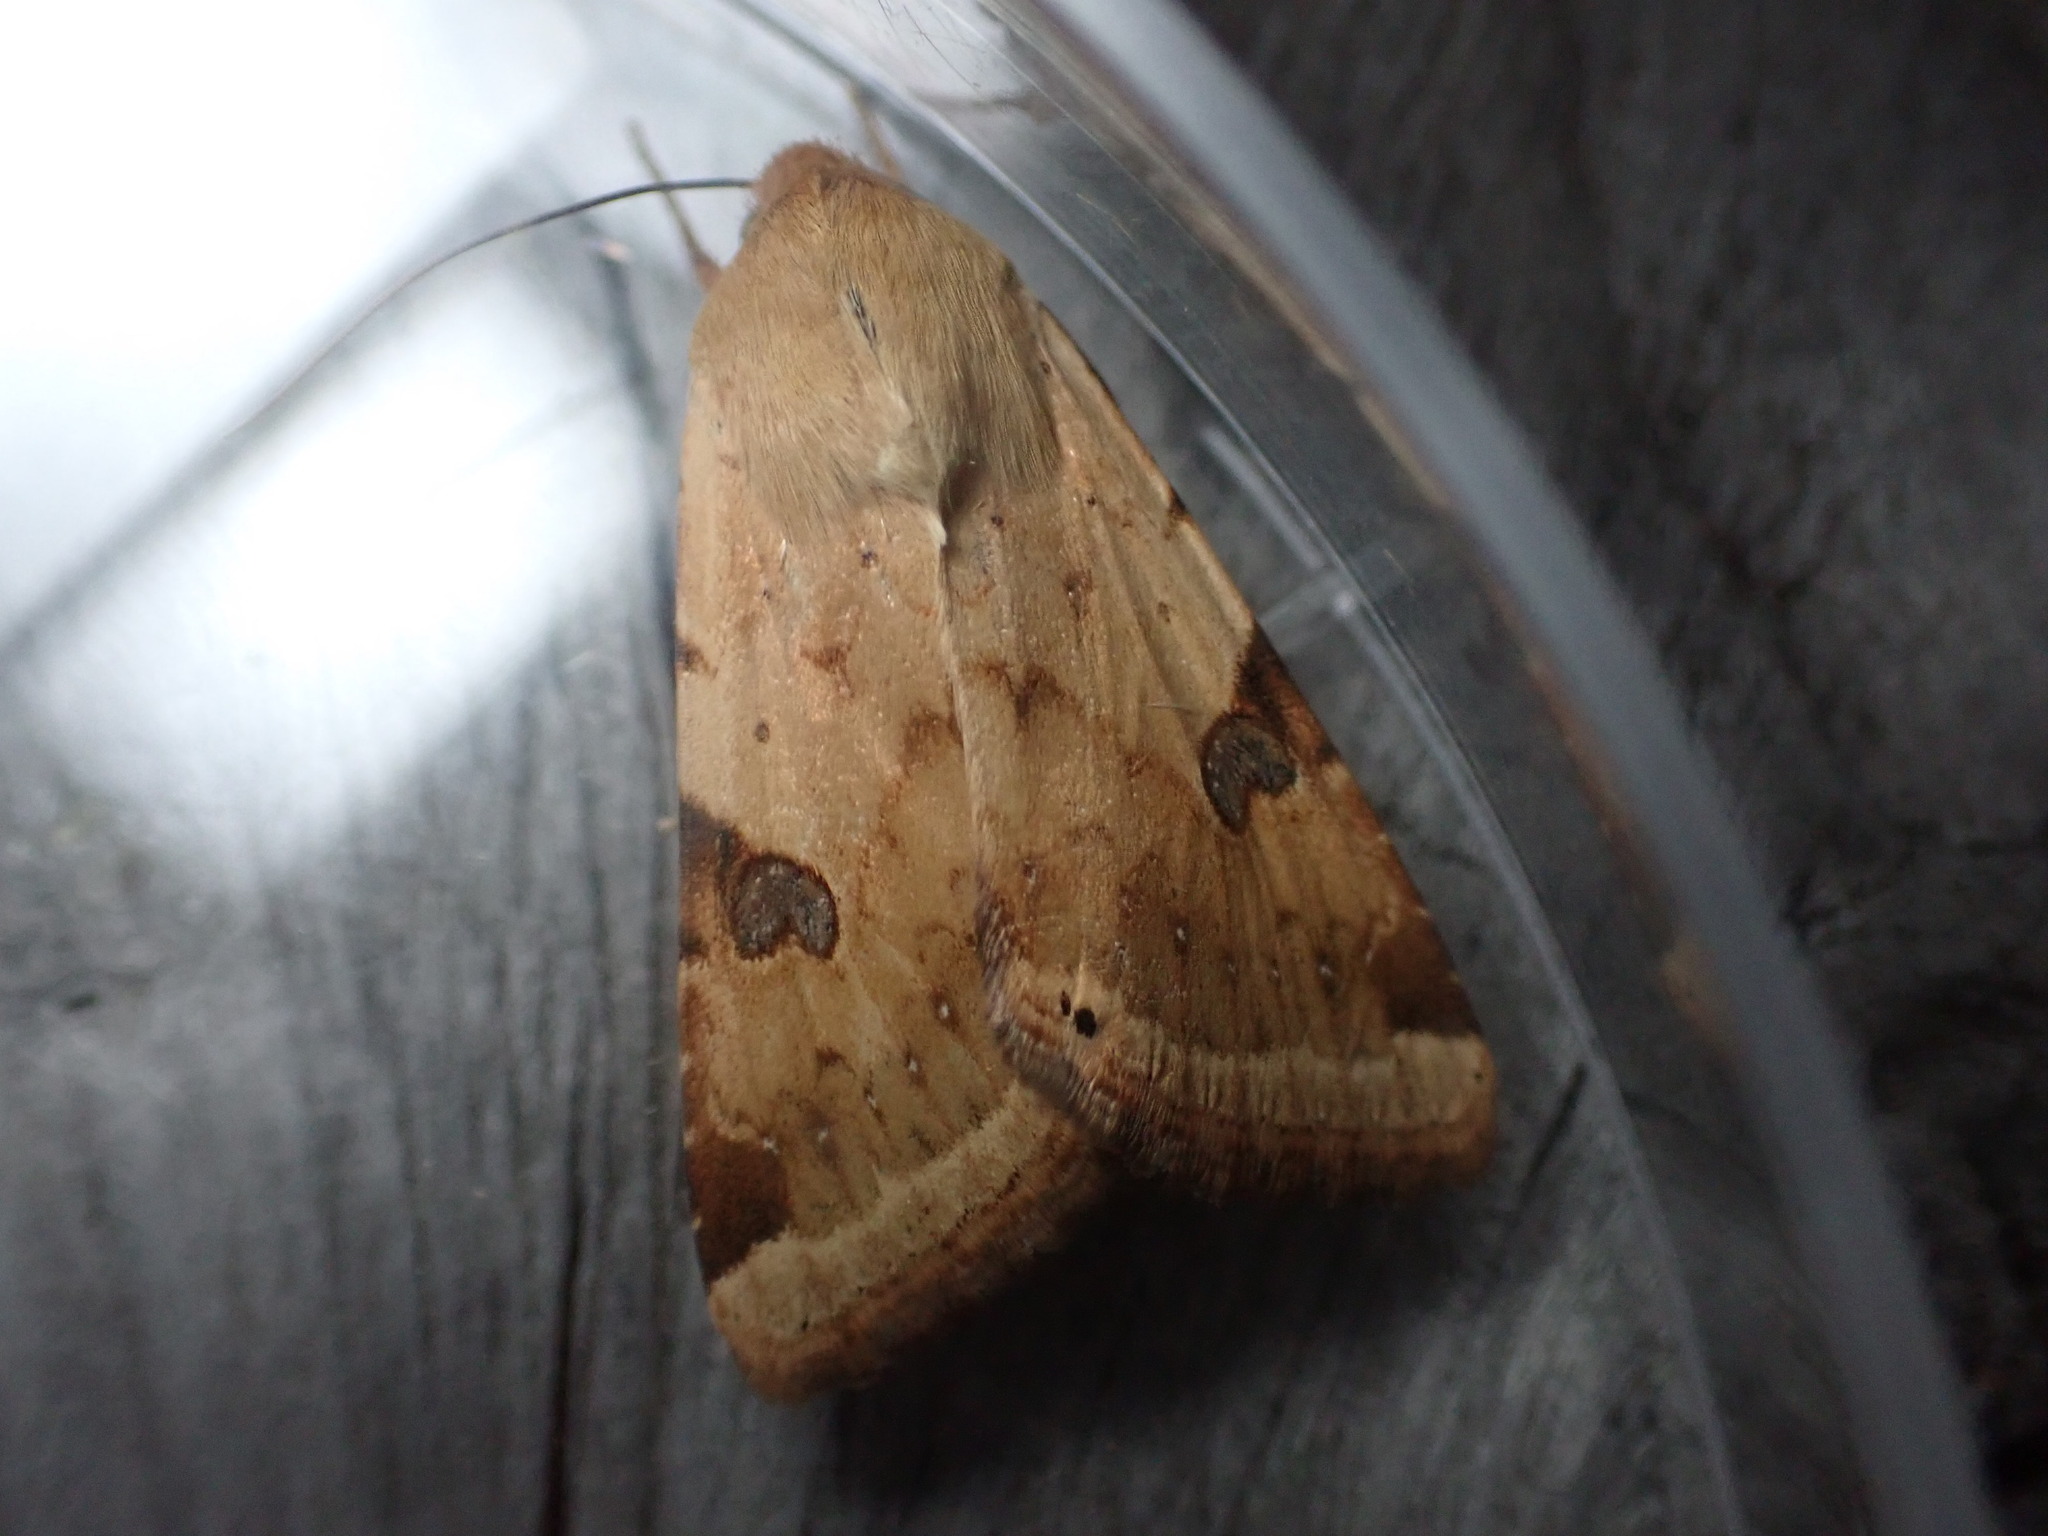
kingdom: Animalia
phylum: Arthropoda
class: Insecta
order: Lepidoptera
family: Noctuidae
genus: Heliothis
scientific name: Heliothis peltigera
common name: Bordered straw
